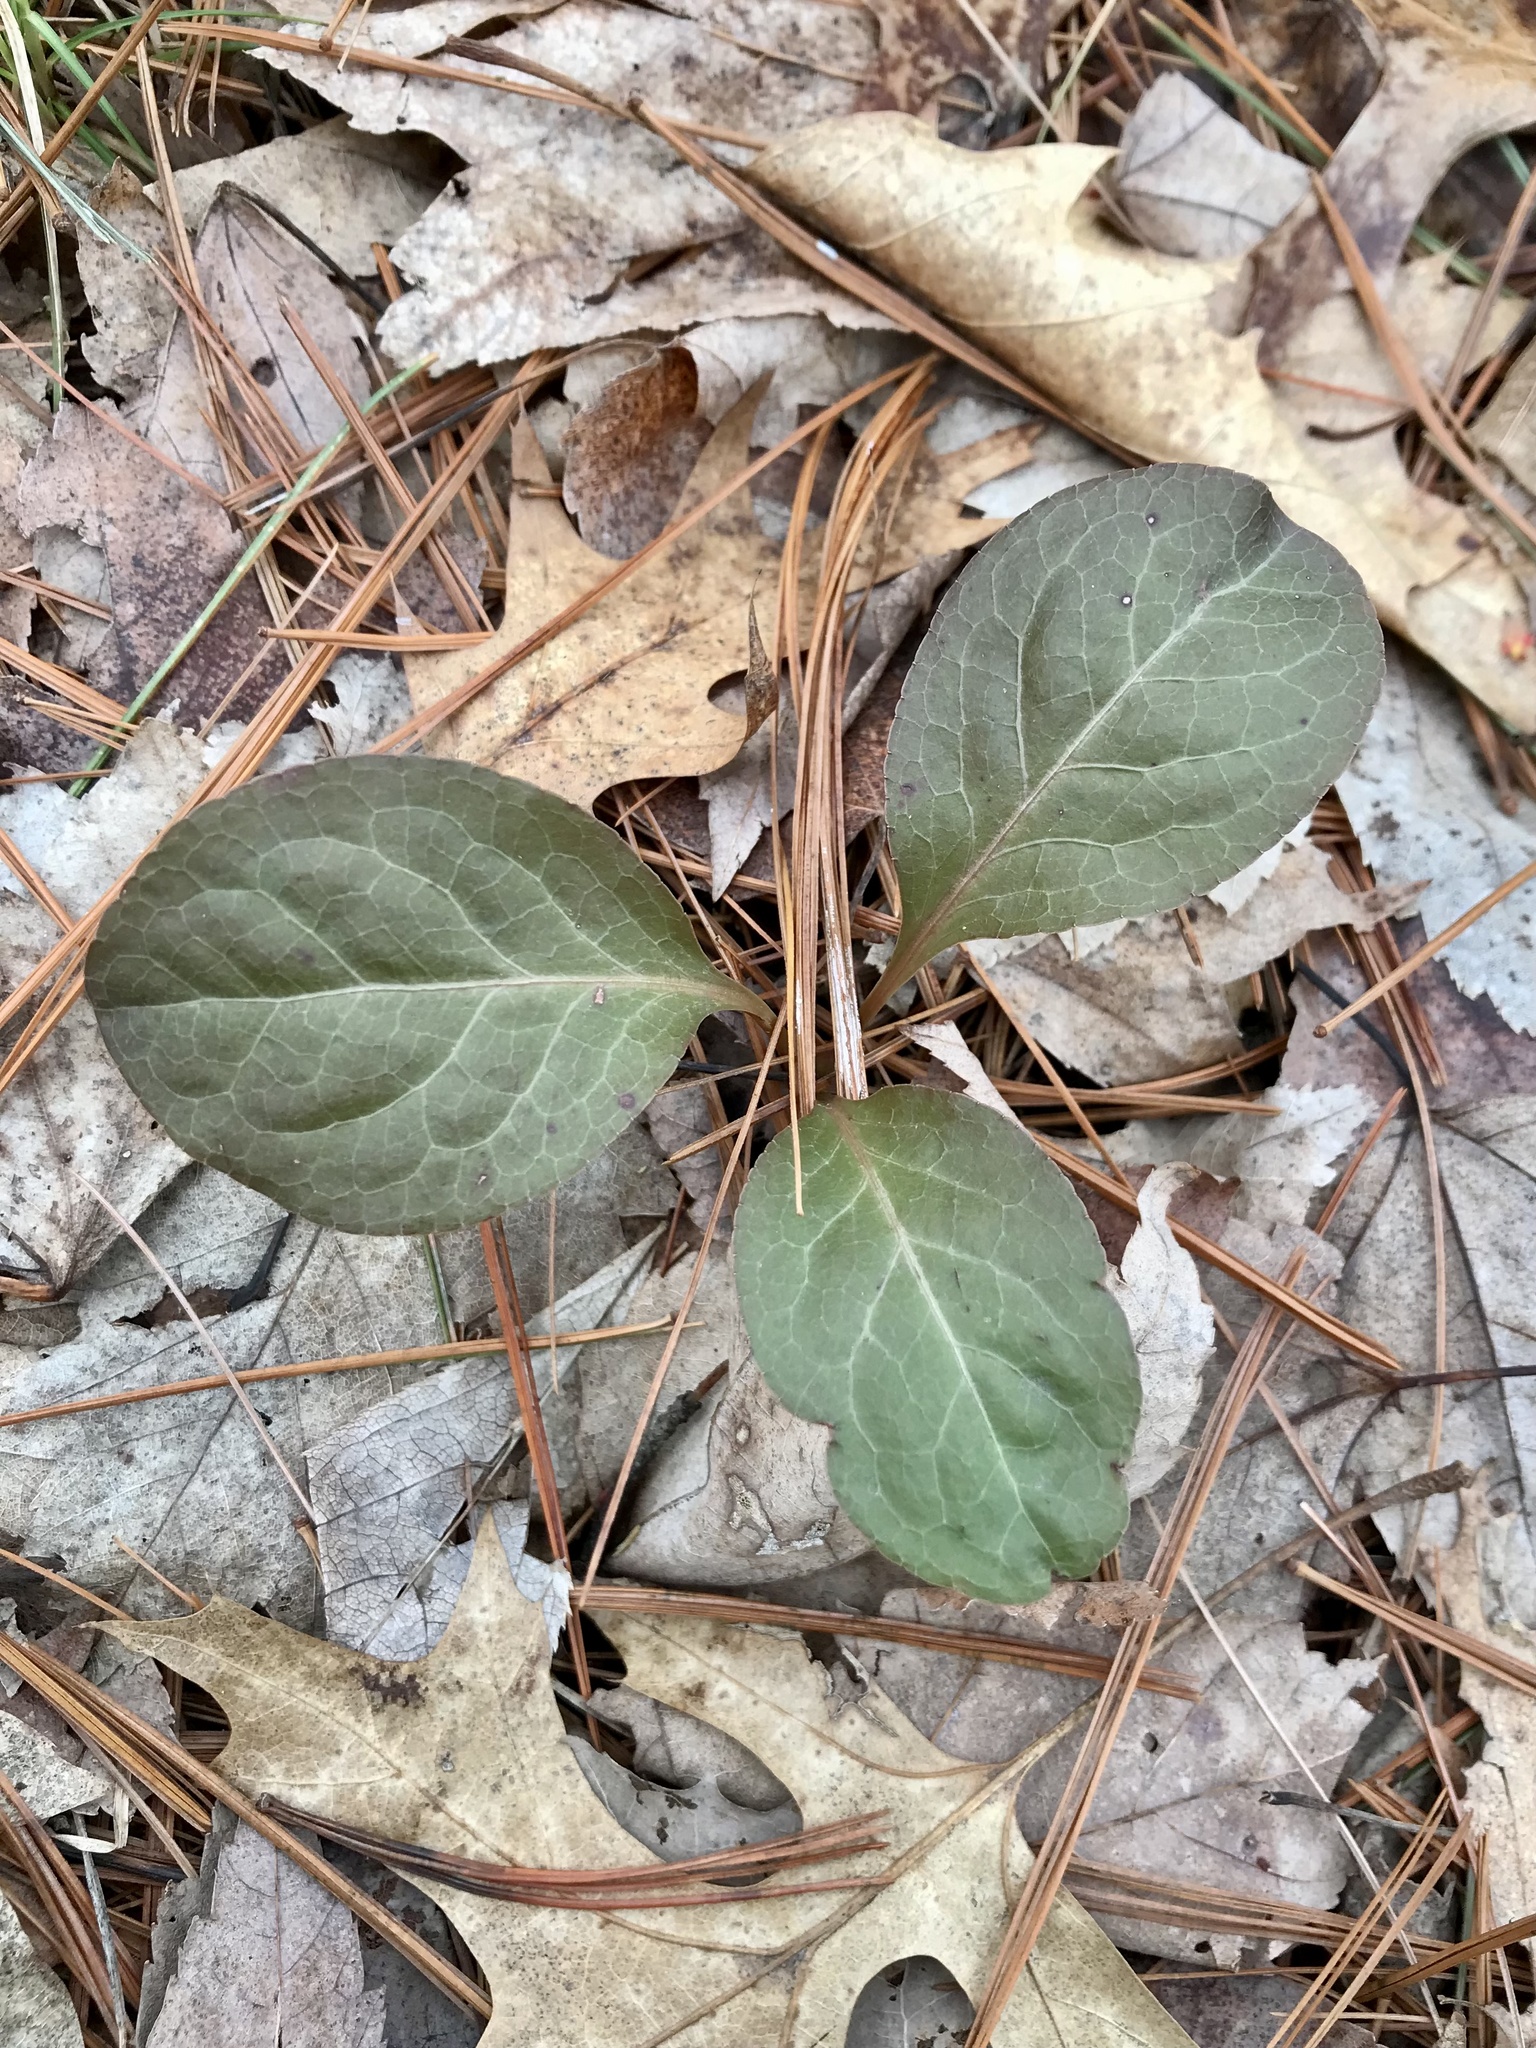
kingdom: Plantae
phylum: Tracheophyta
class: Magnoliopsida
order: Ericales
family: Ericaceae
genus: Pyrola
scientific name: Pyrola elliptica
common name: Shinleaf
